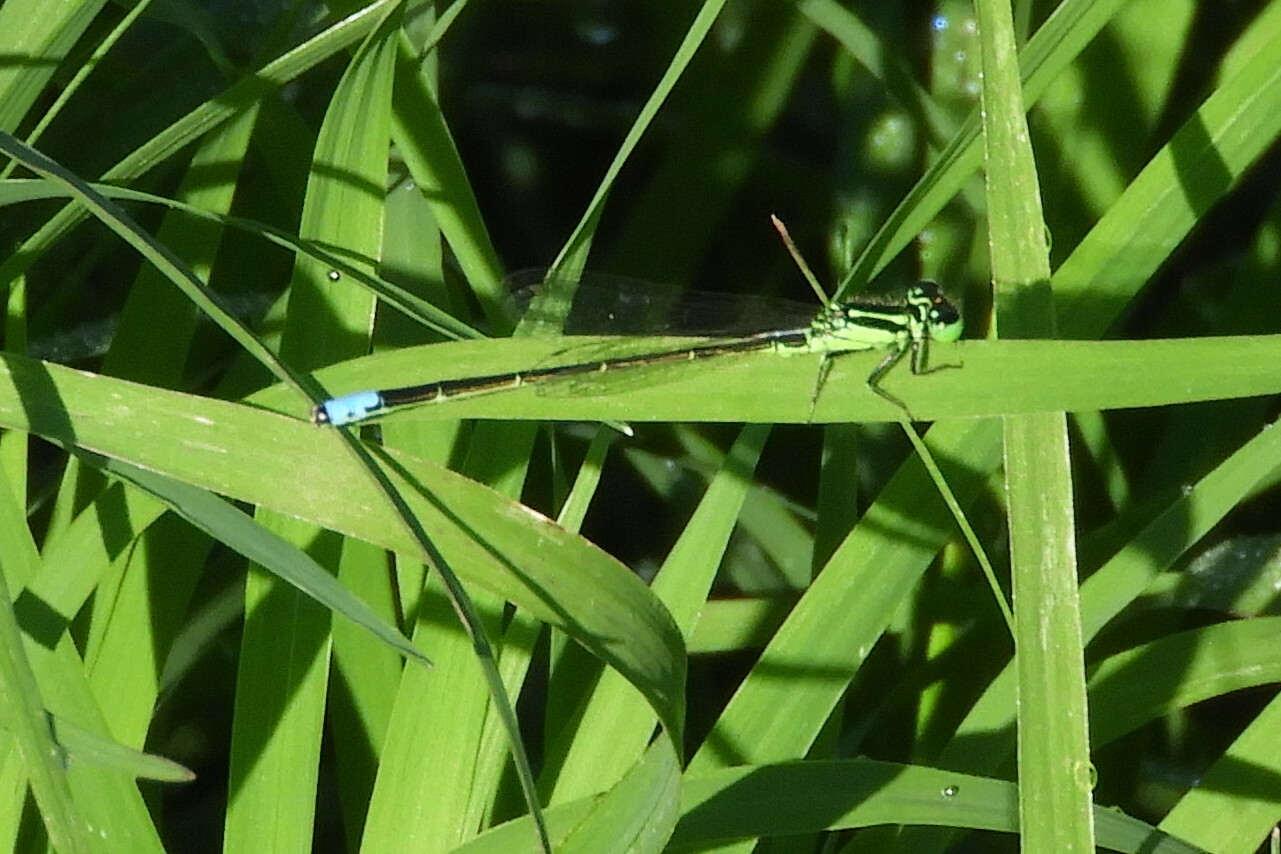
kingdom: Animalia
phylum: Arthropoda
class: Insecta
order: Odonata
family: Coenagrionidae
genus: Ischnura
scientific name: Ischnura verticalis
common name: Eastern forktail
